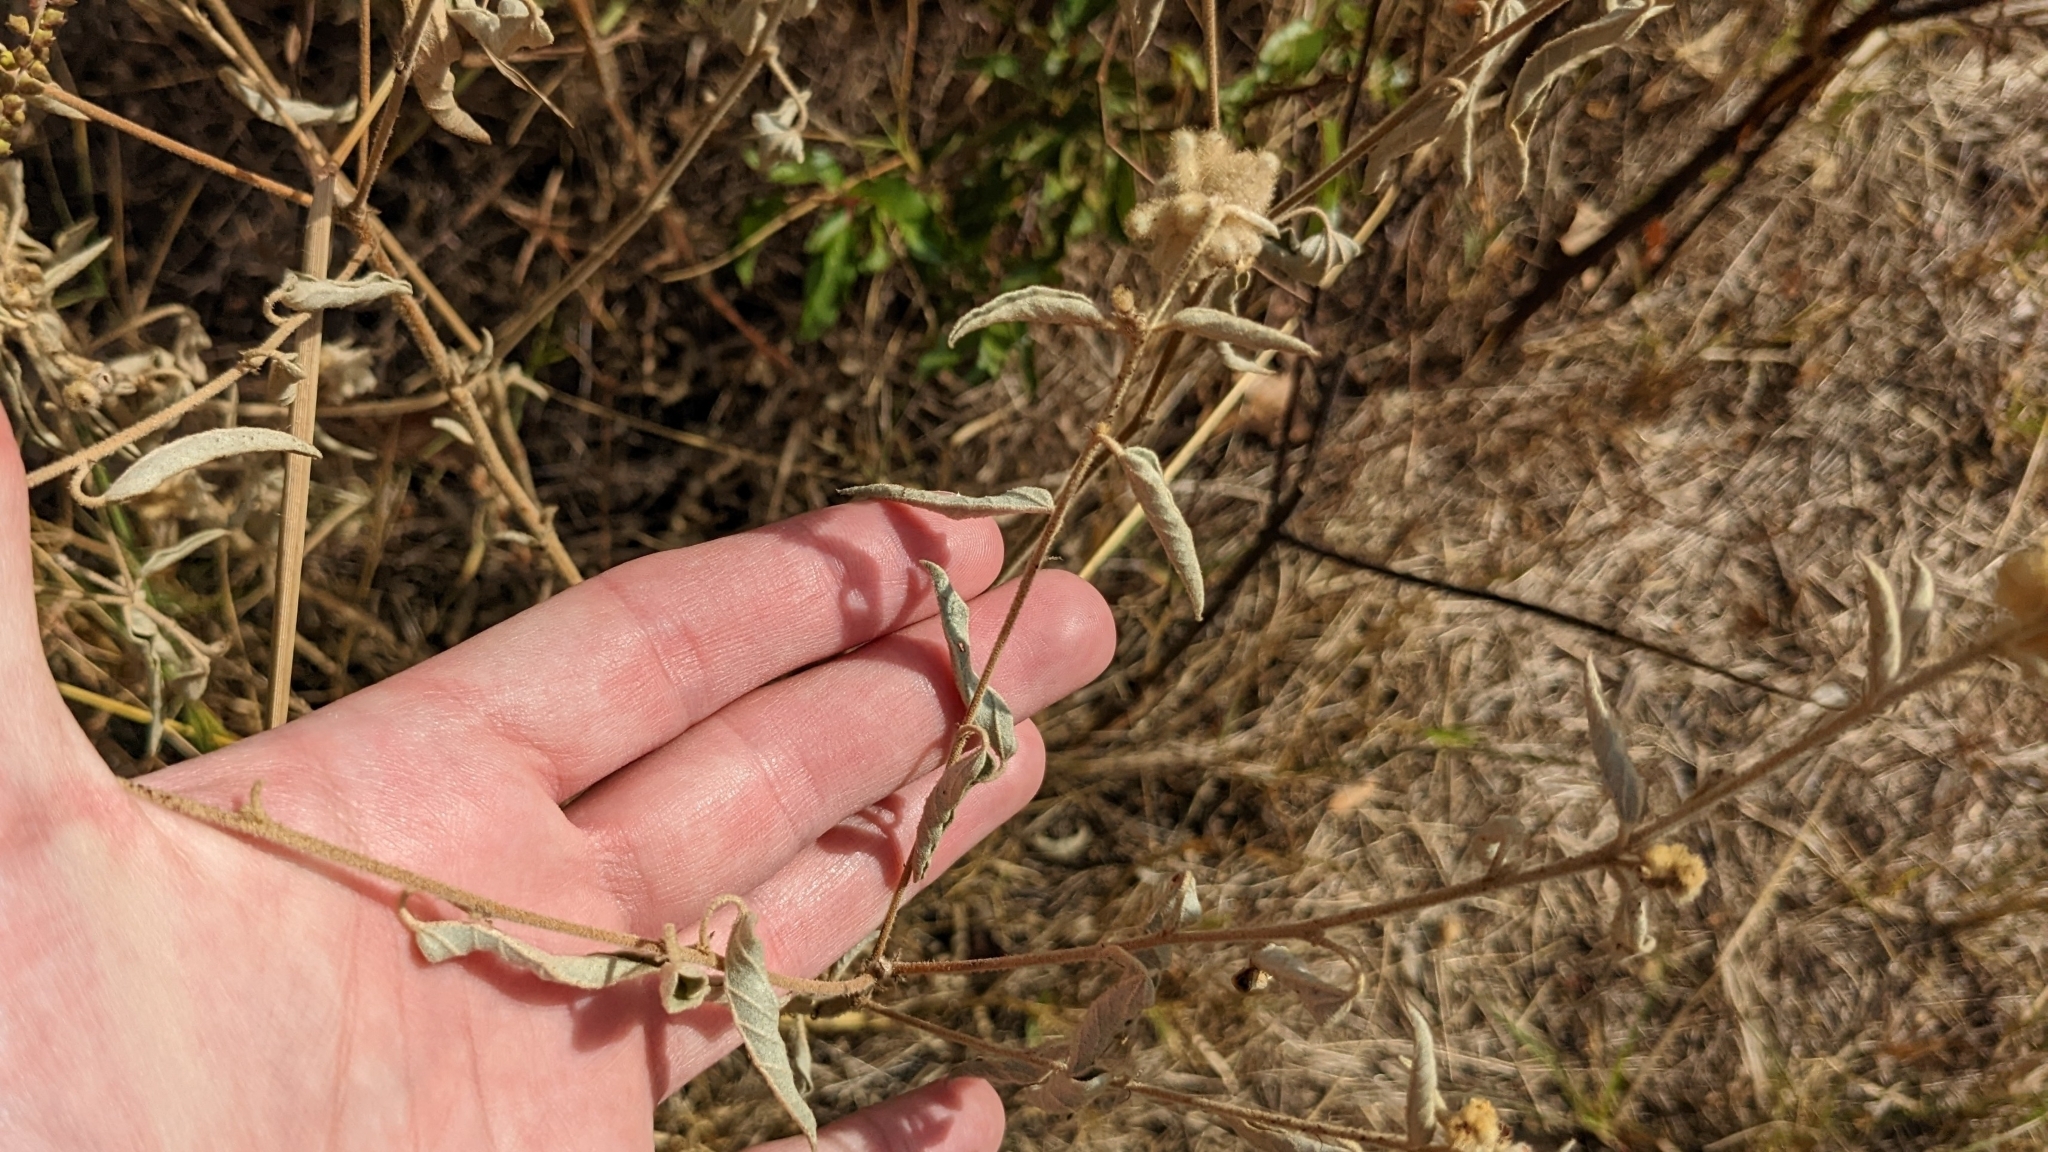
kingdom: Plantae
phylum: Tracheophyta
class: Magnoliopsida
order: Malpighiales
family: Euphorbiaceae
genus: Croton
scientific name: Croton lindheimeri
